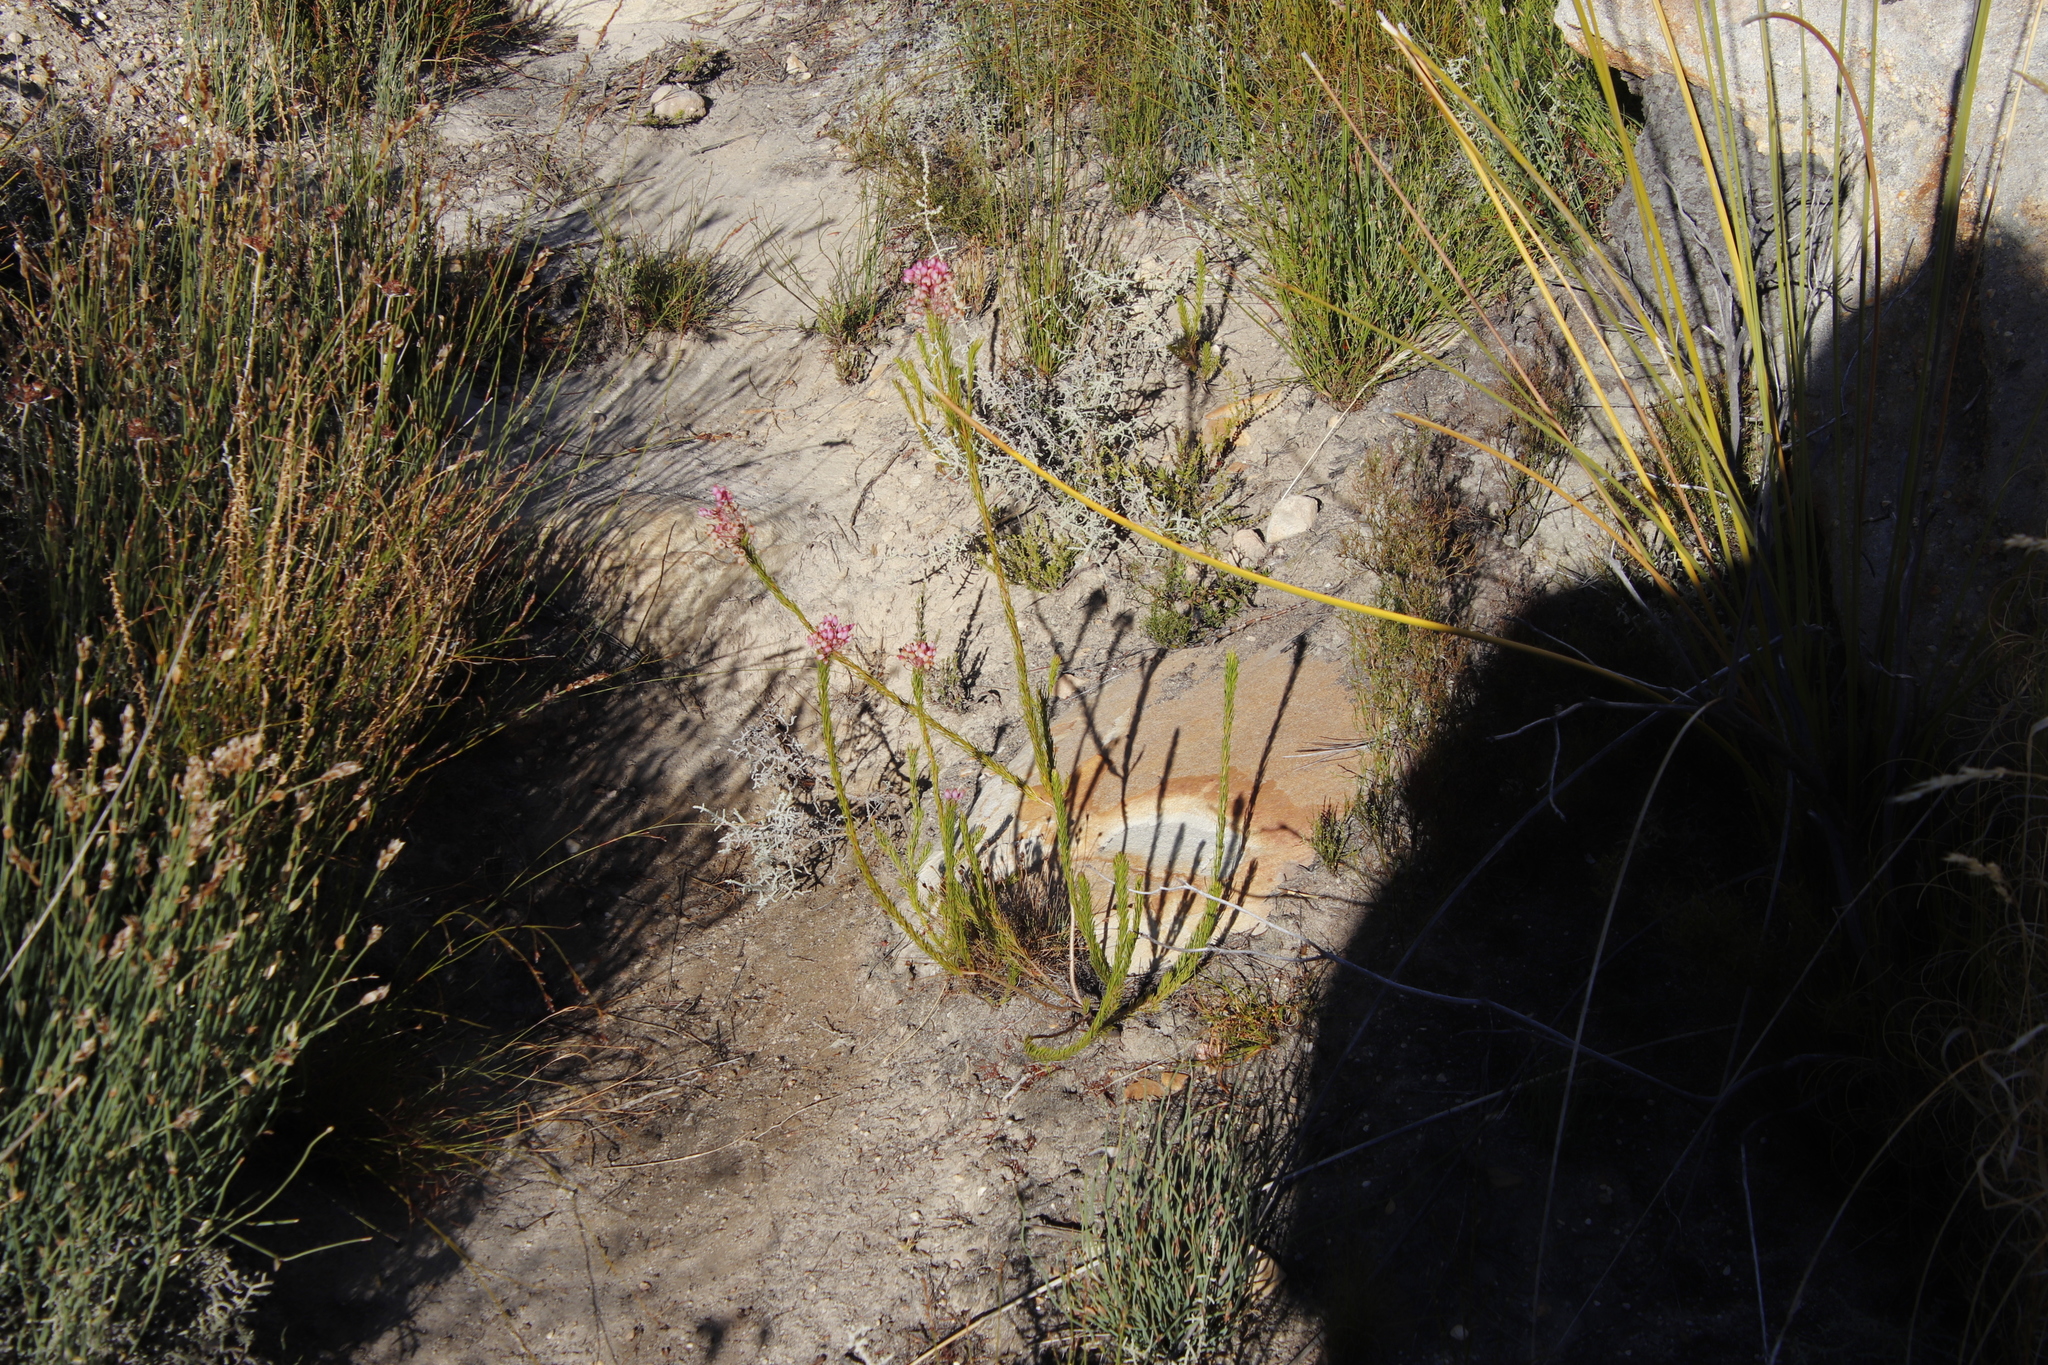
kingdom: Plantae
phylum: Tracheophyta
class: Magnoliopsida
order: Ericales
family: Ericaceae
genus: Erica
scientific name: Erica inflata
